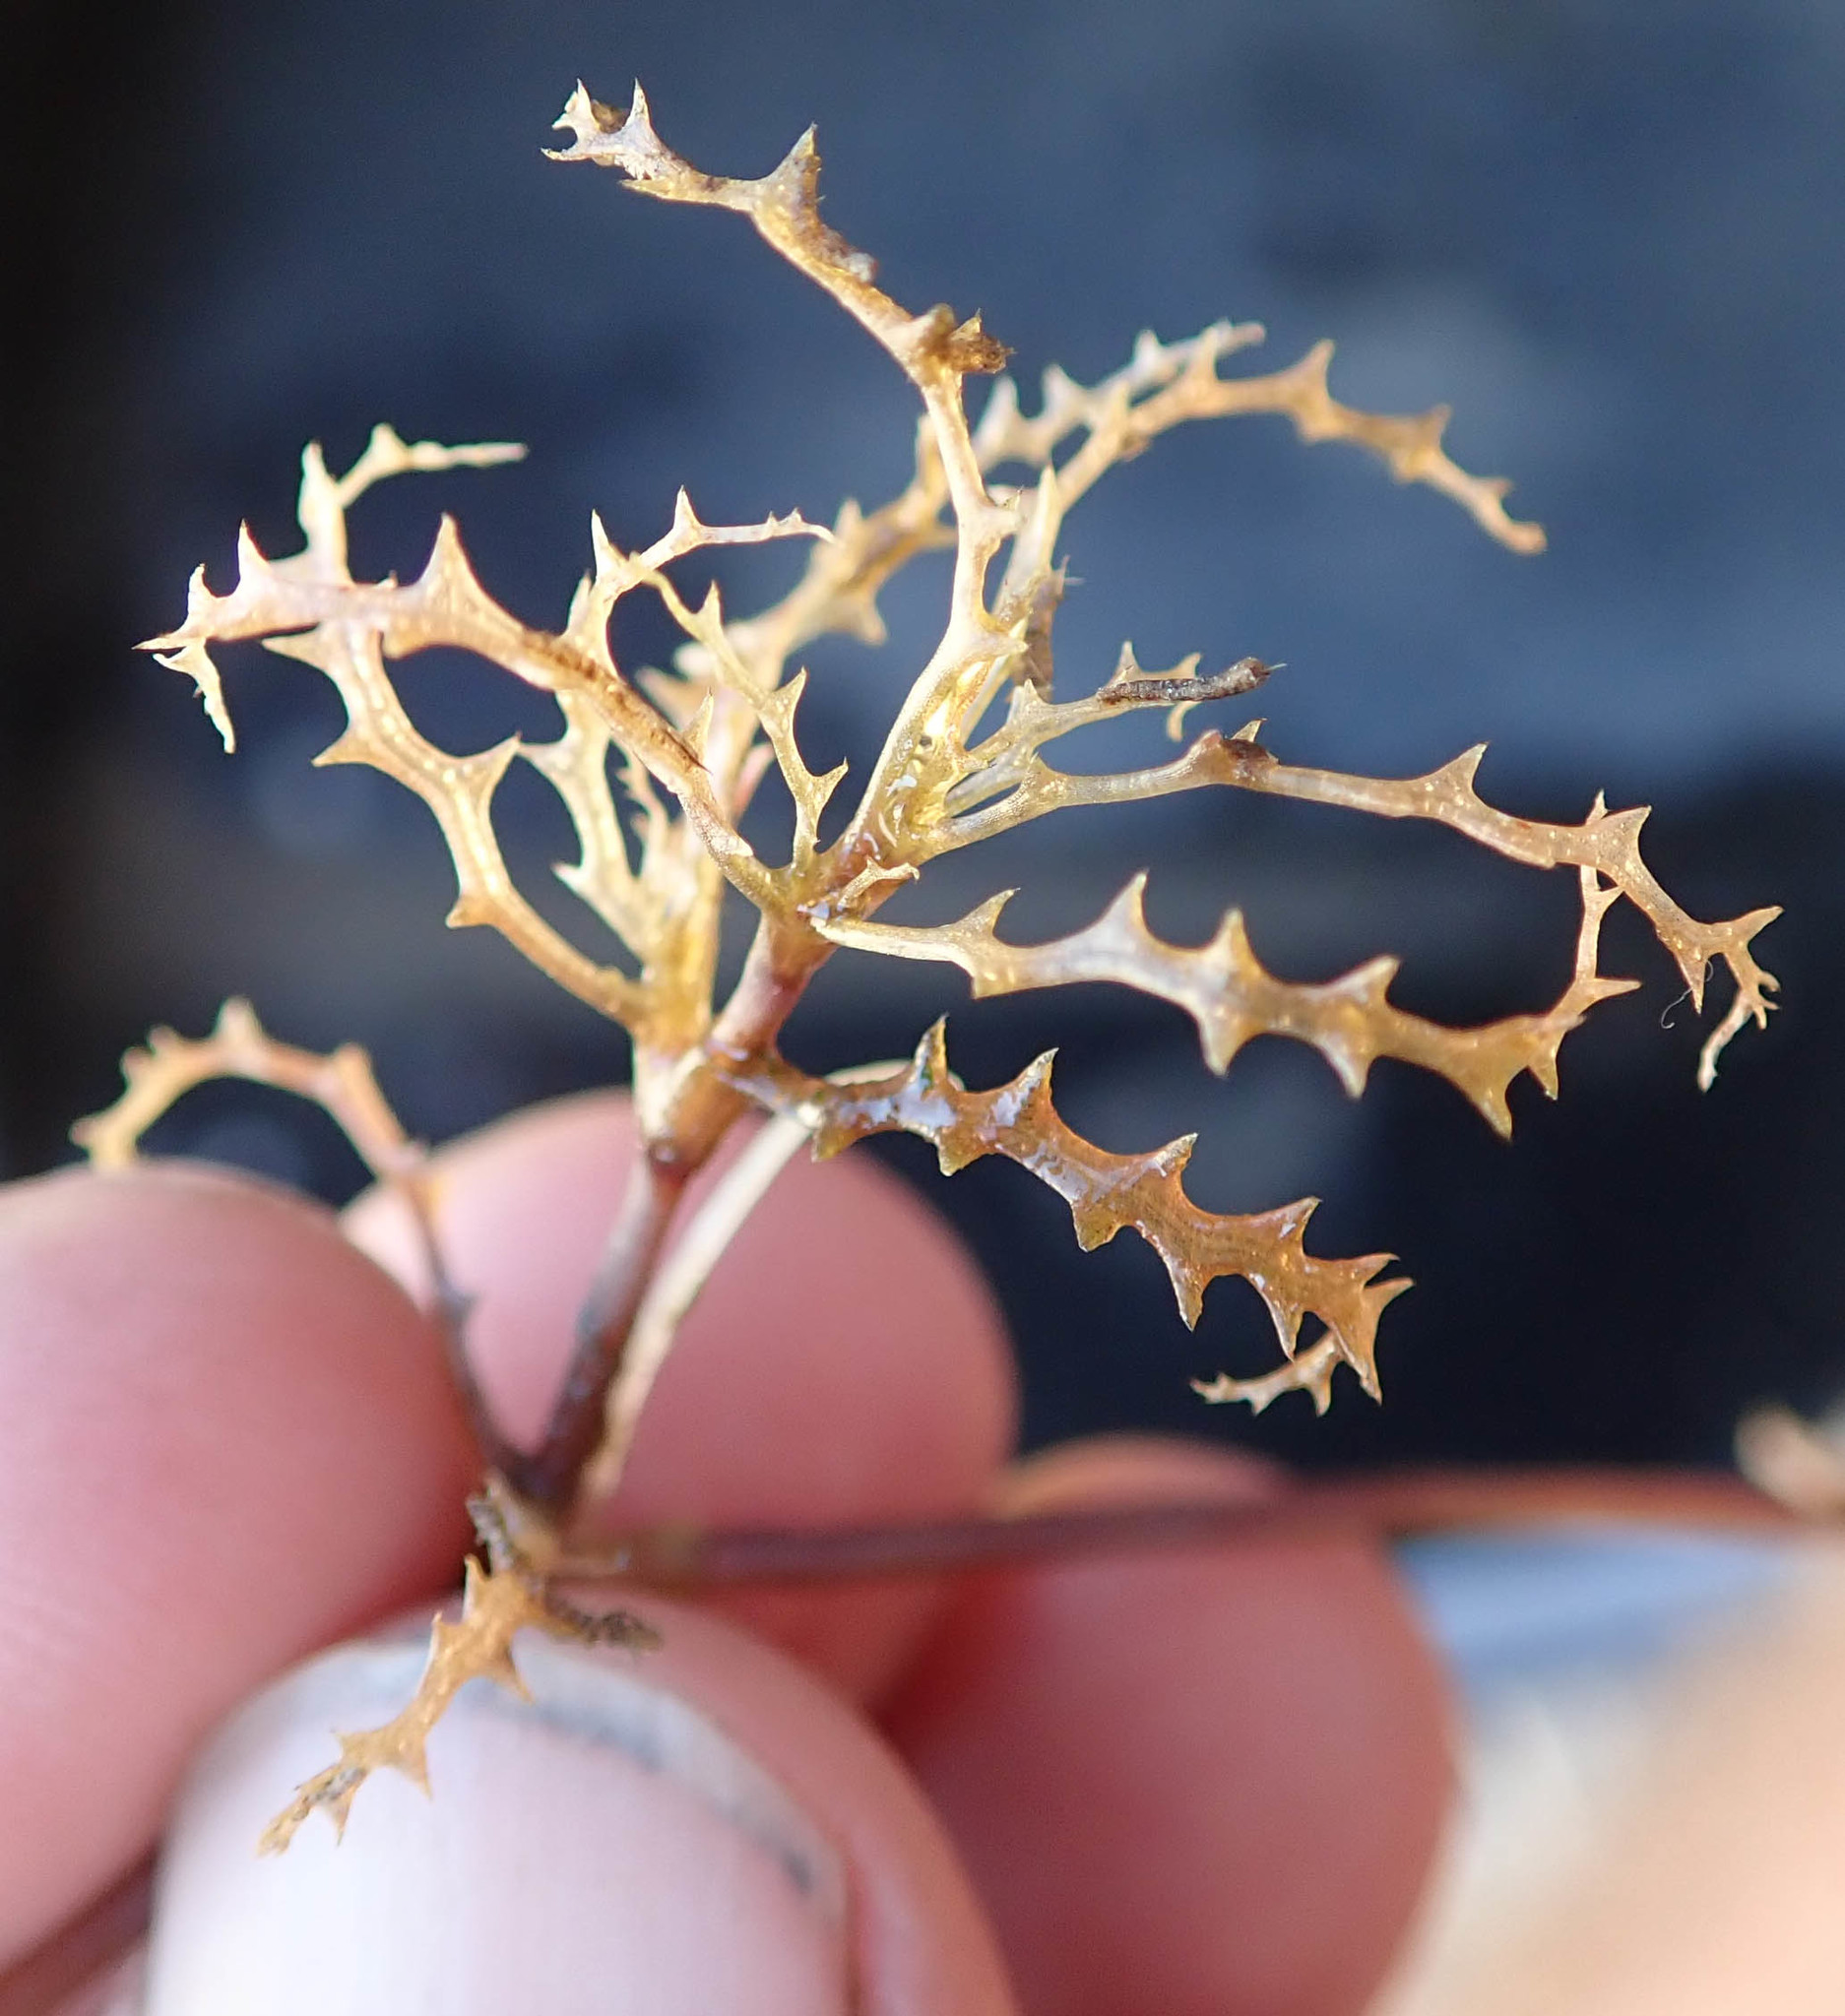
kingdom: Plantae
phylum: Tracheophyta
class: Liliopsida
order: Alismatales
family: Hydrocharitaceae
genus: Najas
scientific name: Najas horrida
